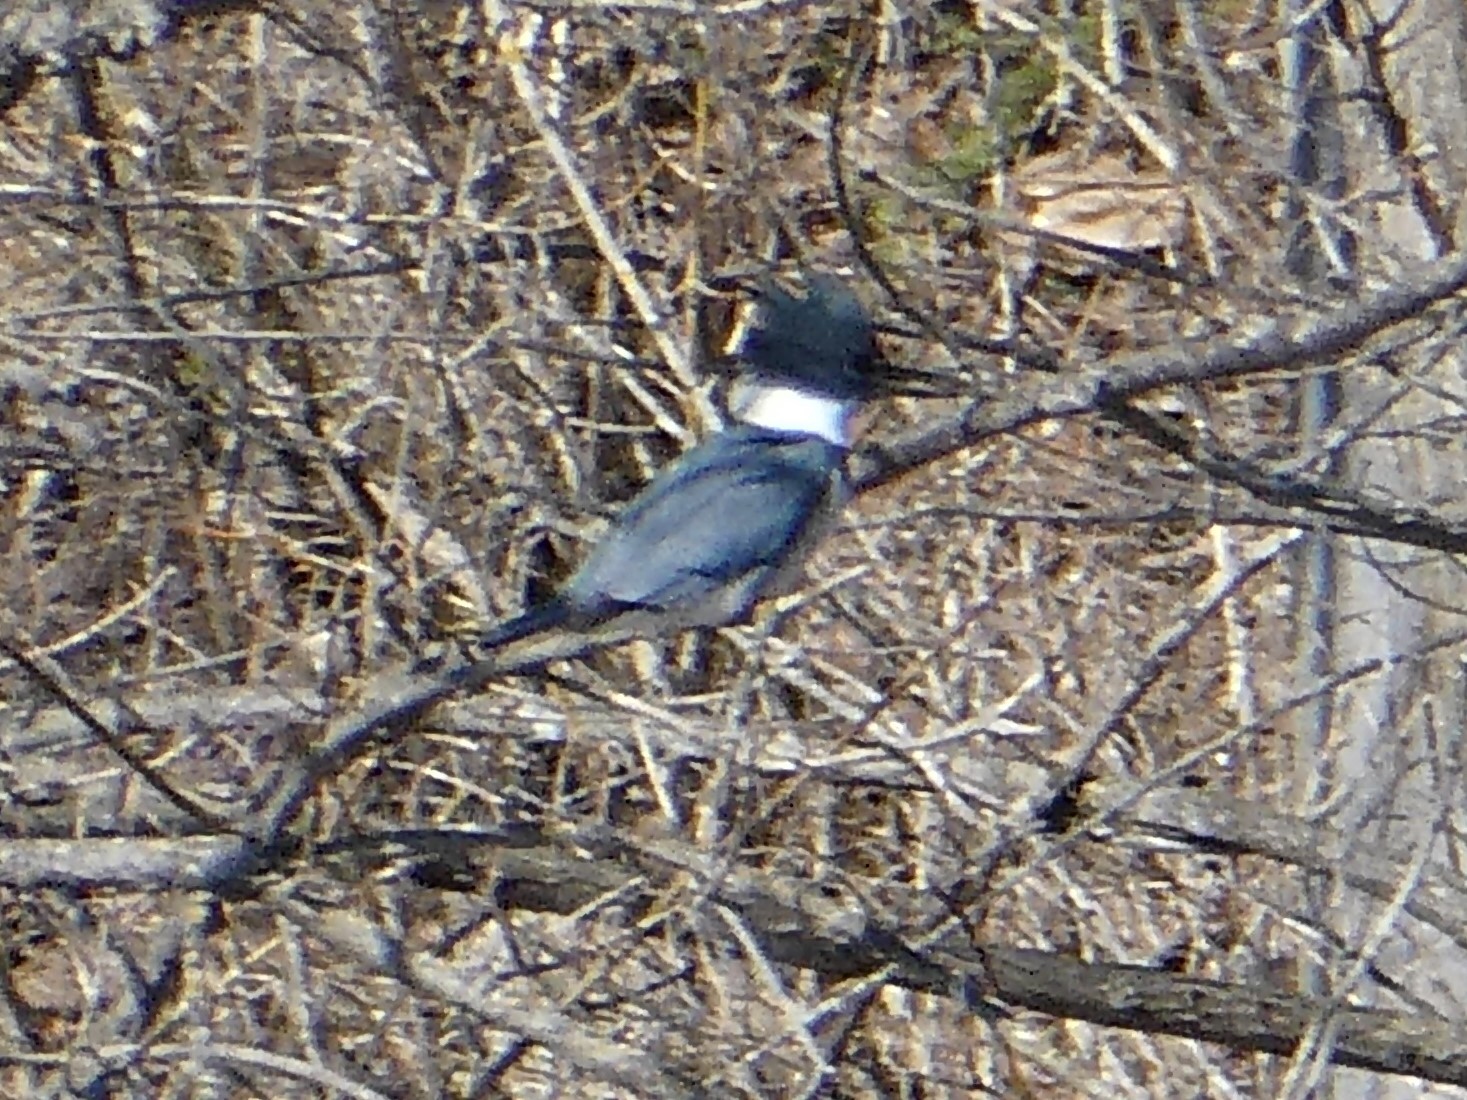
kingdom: Animalia
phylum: Chordata
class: Aves
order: Coraciiformes
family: Alcedinidae
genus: Megaceryle
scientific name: Megaceryle alcyon
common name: Belted kingfisher
